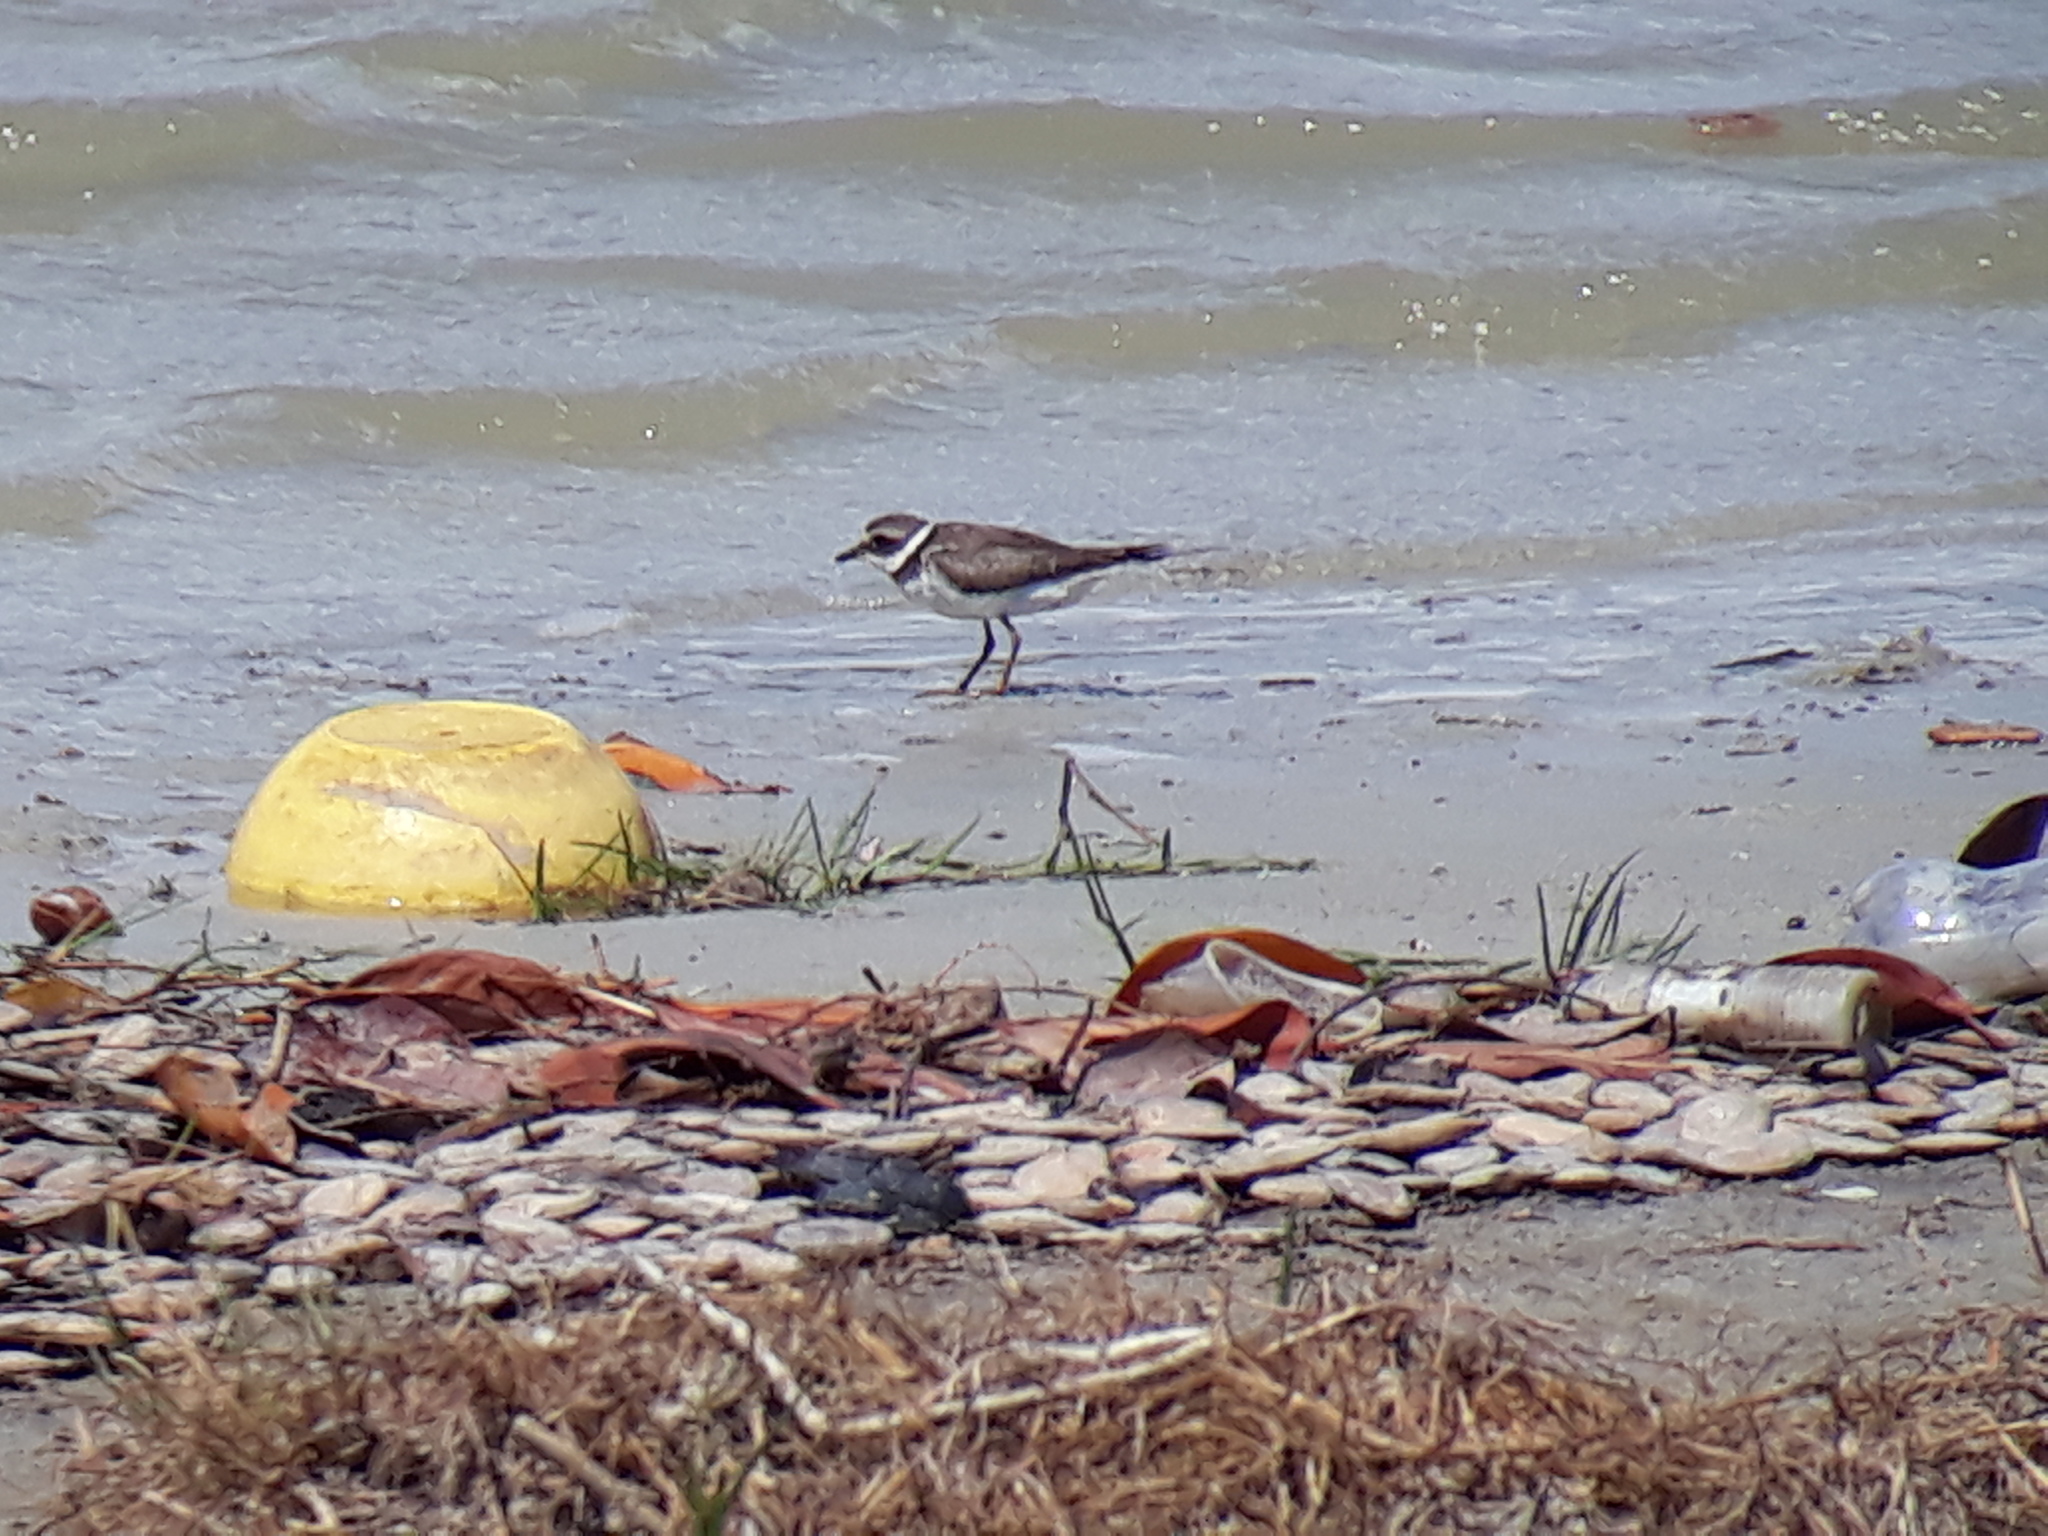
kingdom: Animalia
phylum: Chordata
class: Aves
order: Charadriiformes
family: Charadriidae
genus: Charadrius
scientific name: Charadrius hiaticula
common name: Common ringed plover
